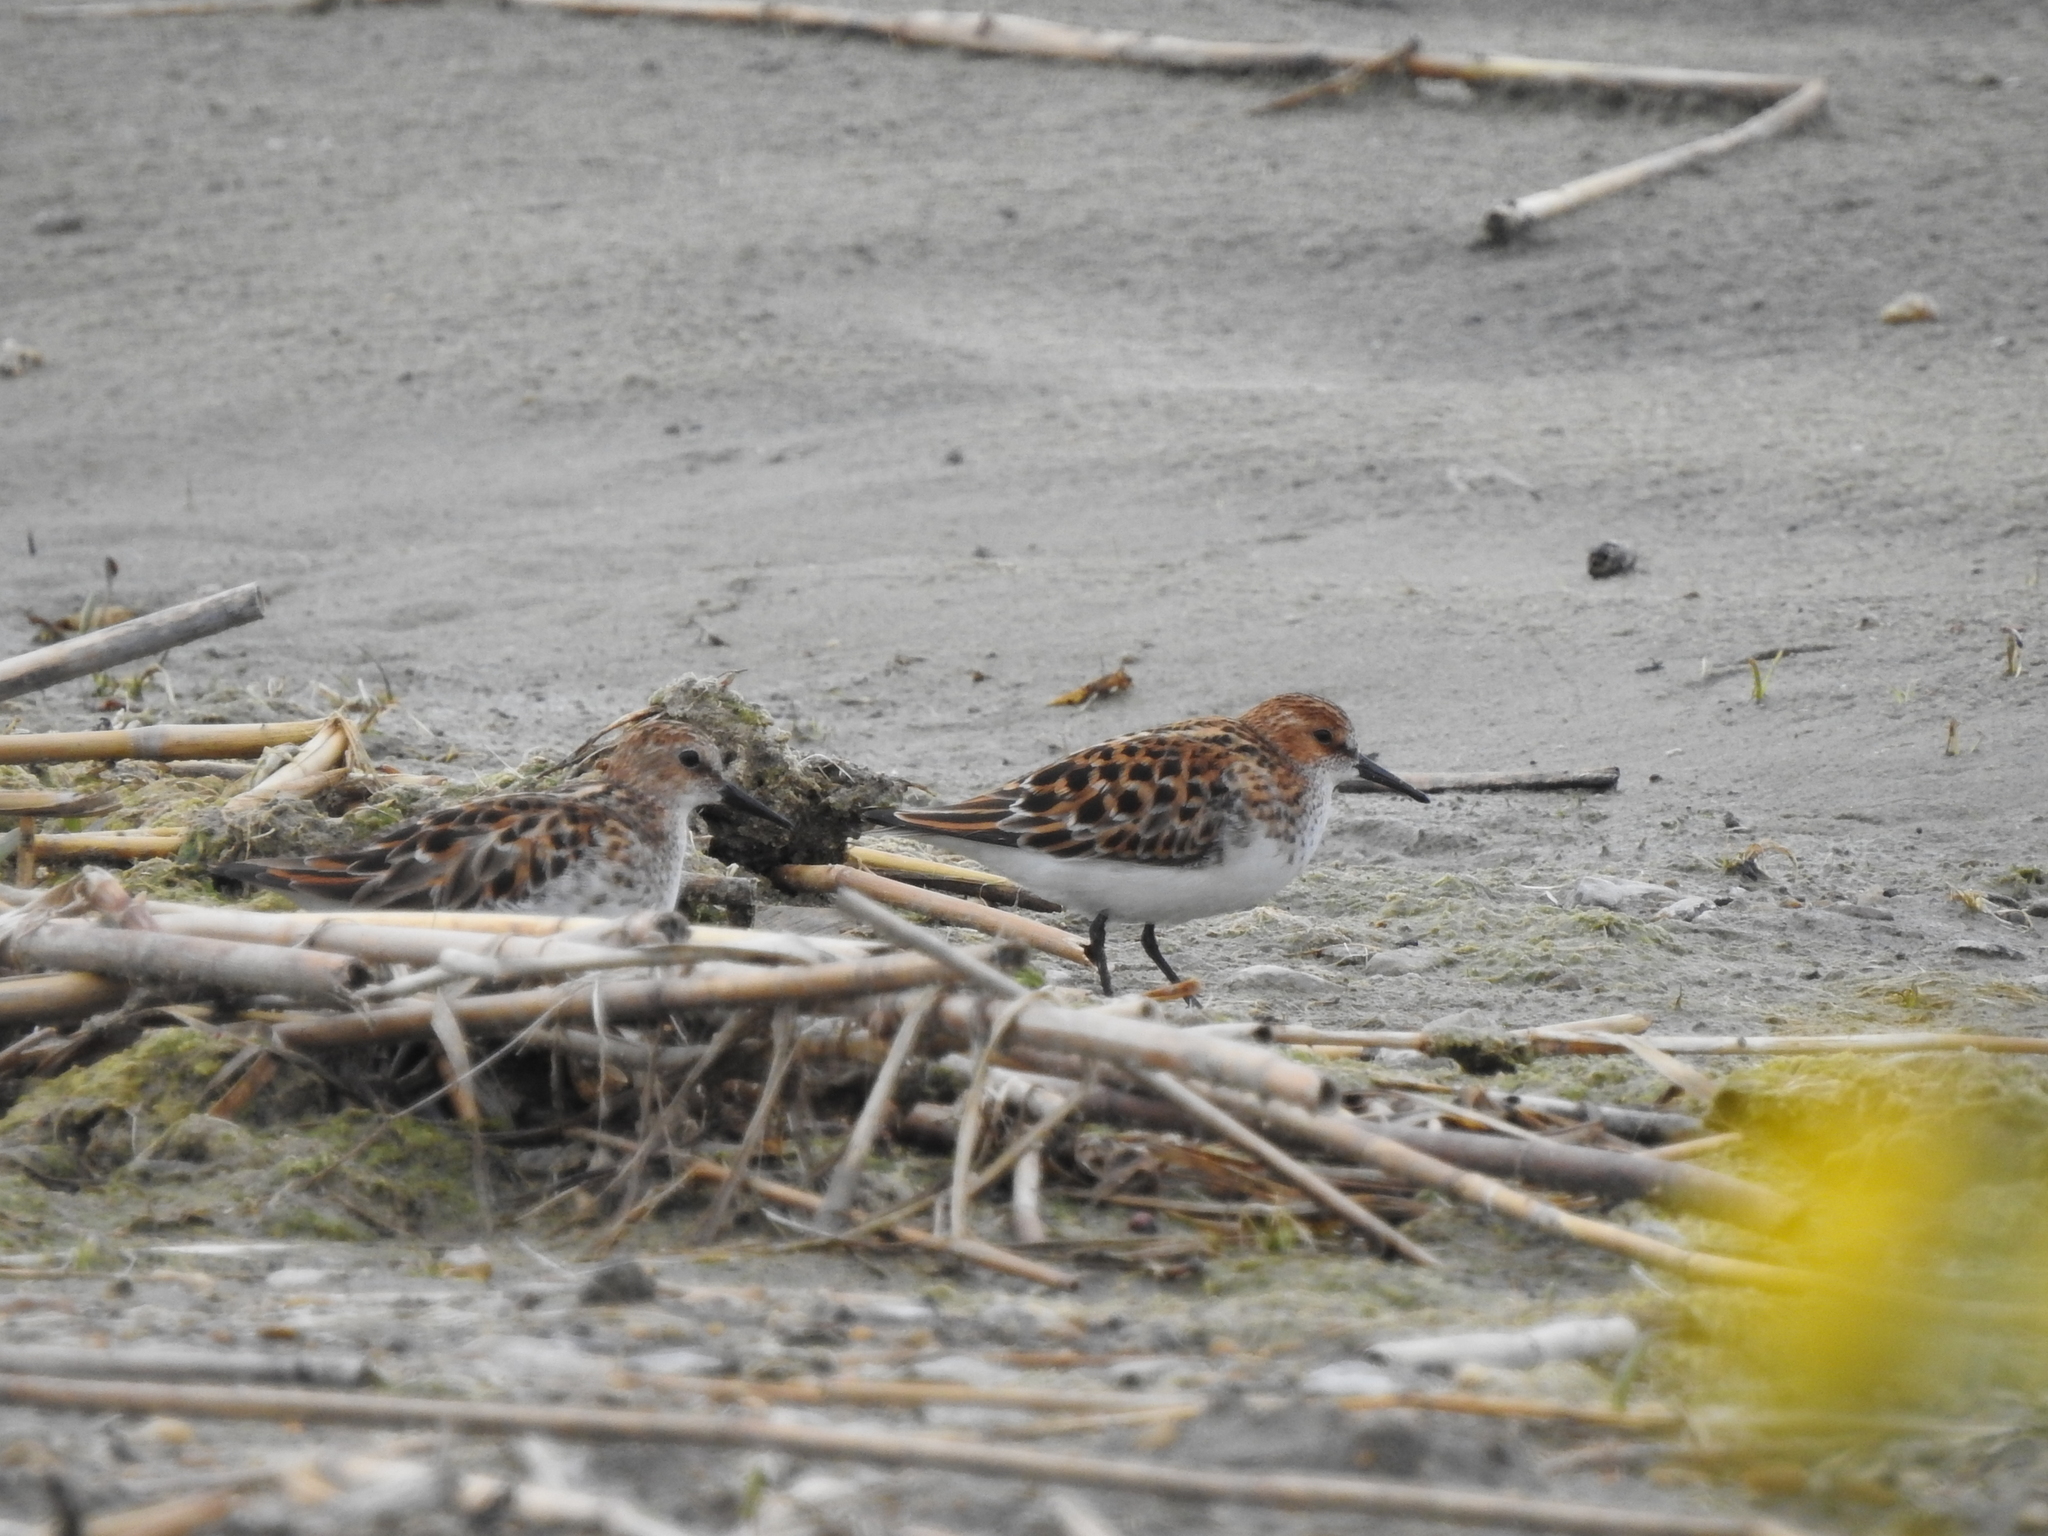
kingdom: Animalia
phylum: Chordata
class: Aves
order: Charadriiformes
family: Scolopacidae
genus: Calidris
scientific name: Calidris minuta
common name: Little stint
